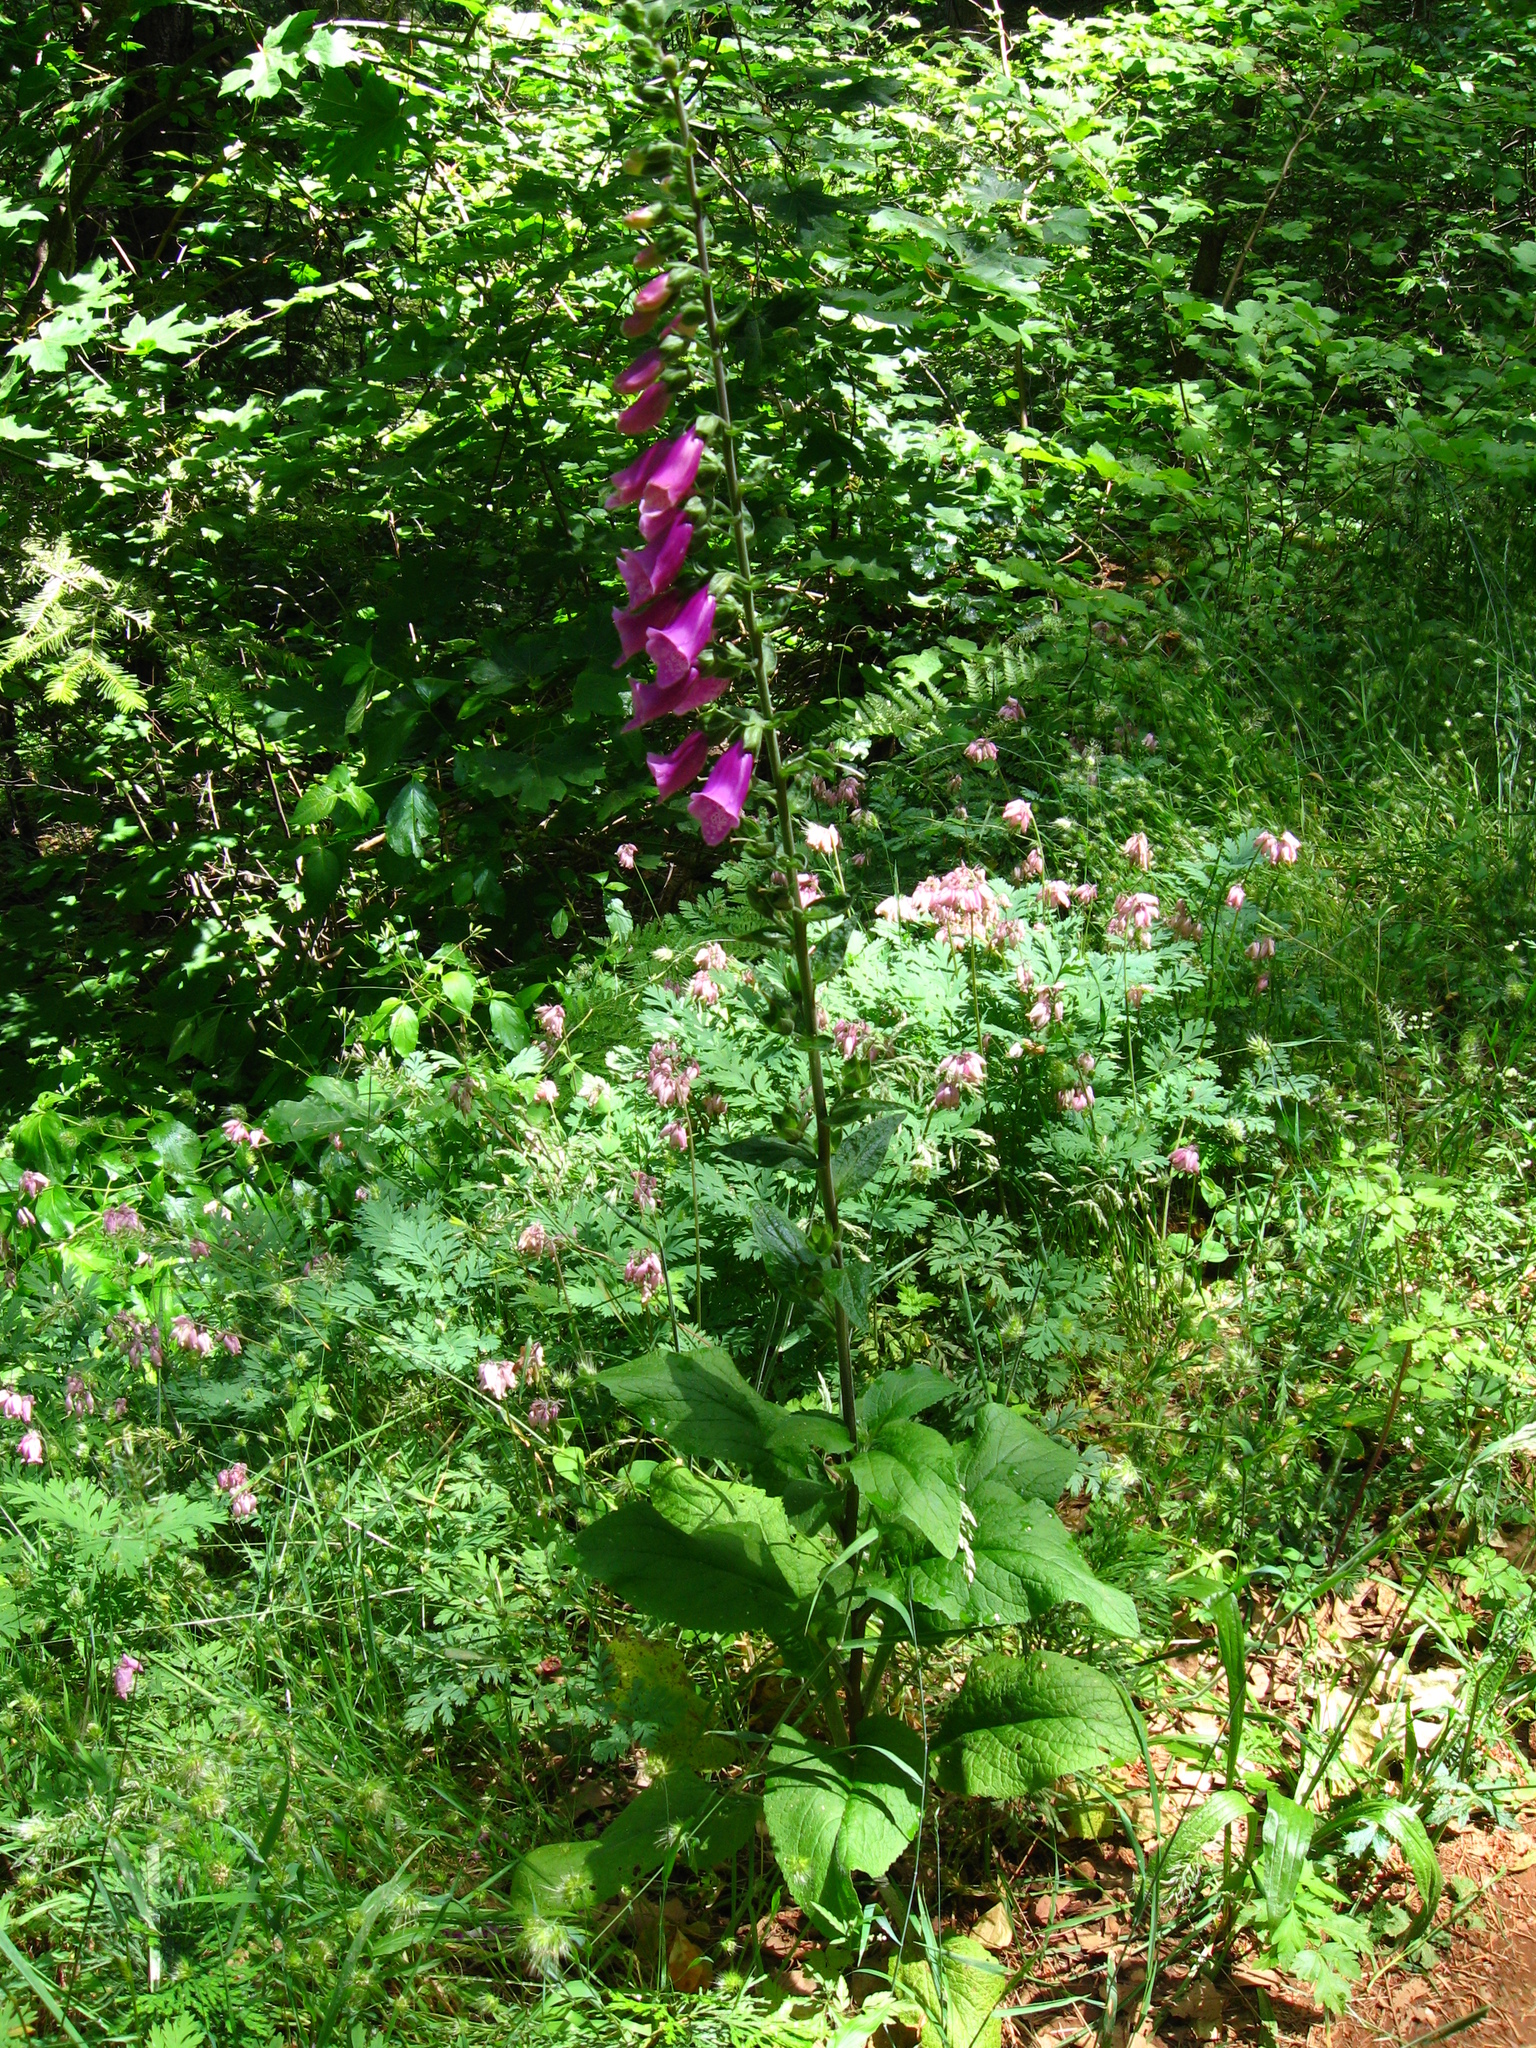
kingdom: Plantae
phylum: Tracheophyta
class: Magnoliopsida
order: Lamiales
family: Plantaginaceae
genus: Digitalis
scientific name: Digitalis purpurea
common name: Foxglove
